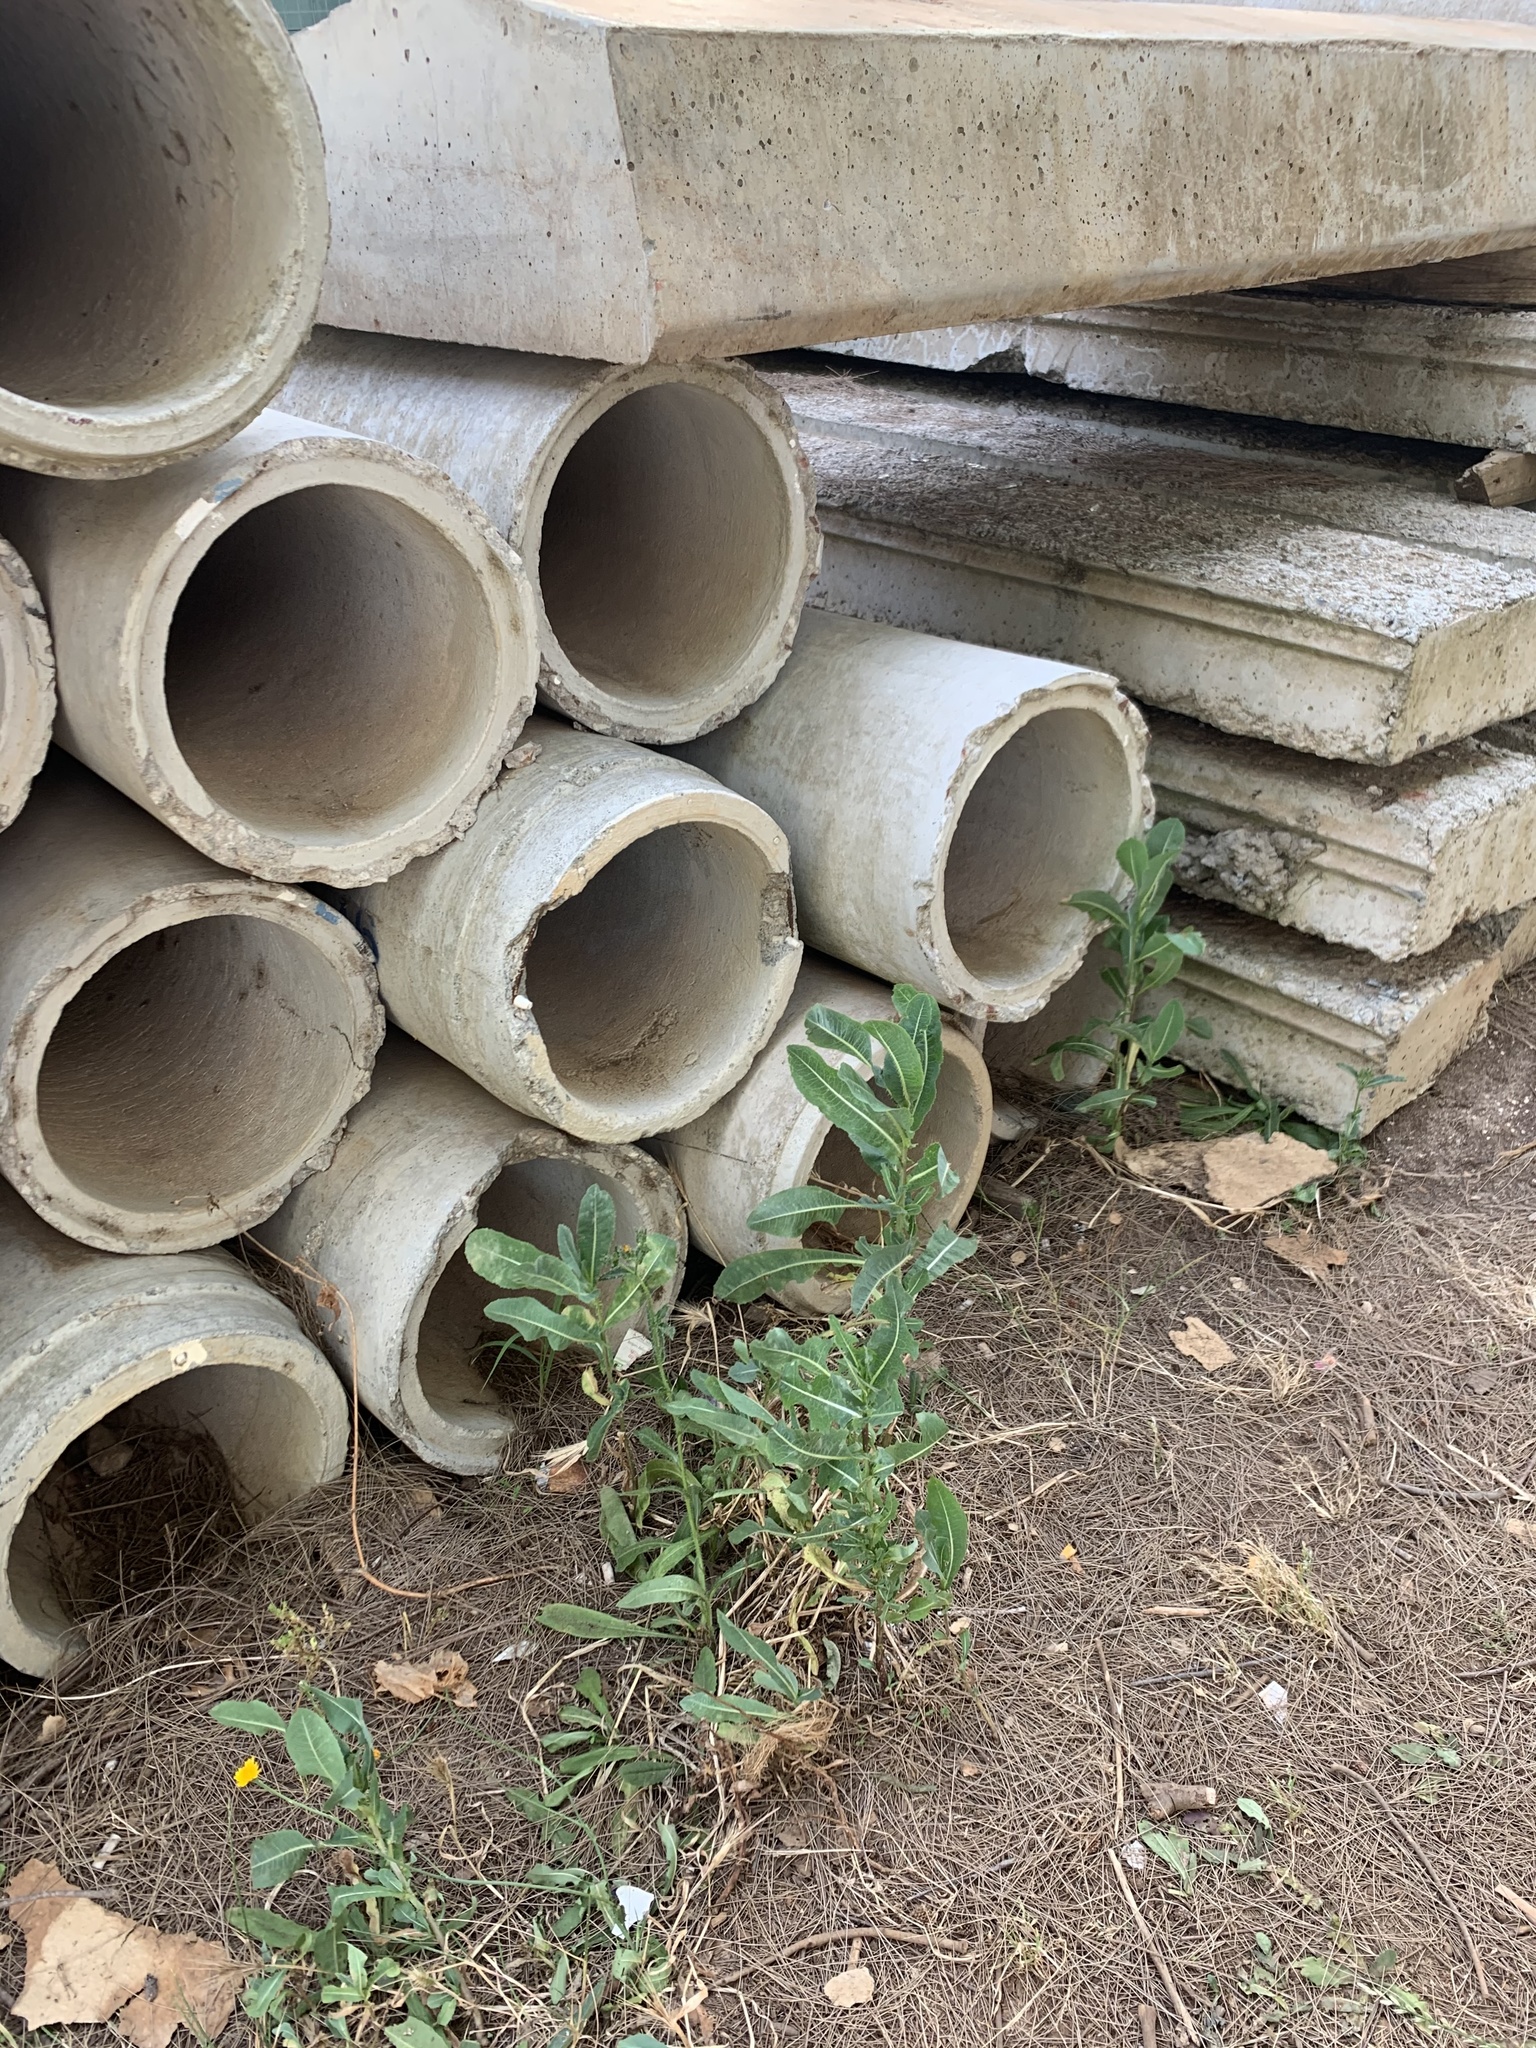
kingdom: Plantae
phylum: Tracheophyta
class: Magnoliopsida
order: Asterales
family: Asteraceae
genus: Lactuca
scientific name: Lactuca serriola
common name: Prickly lettuce
